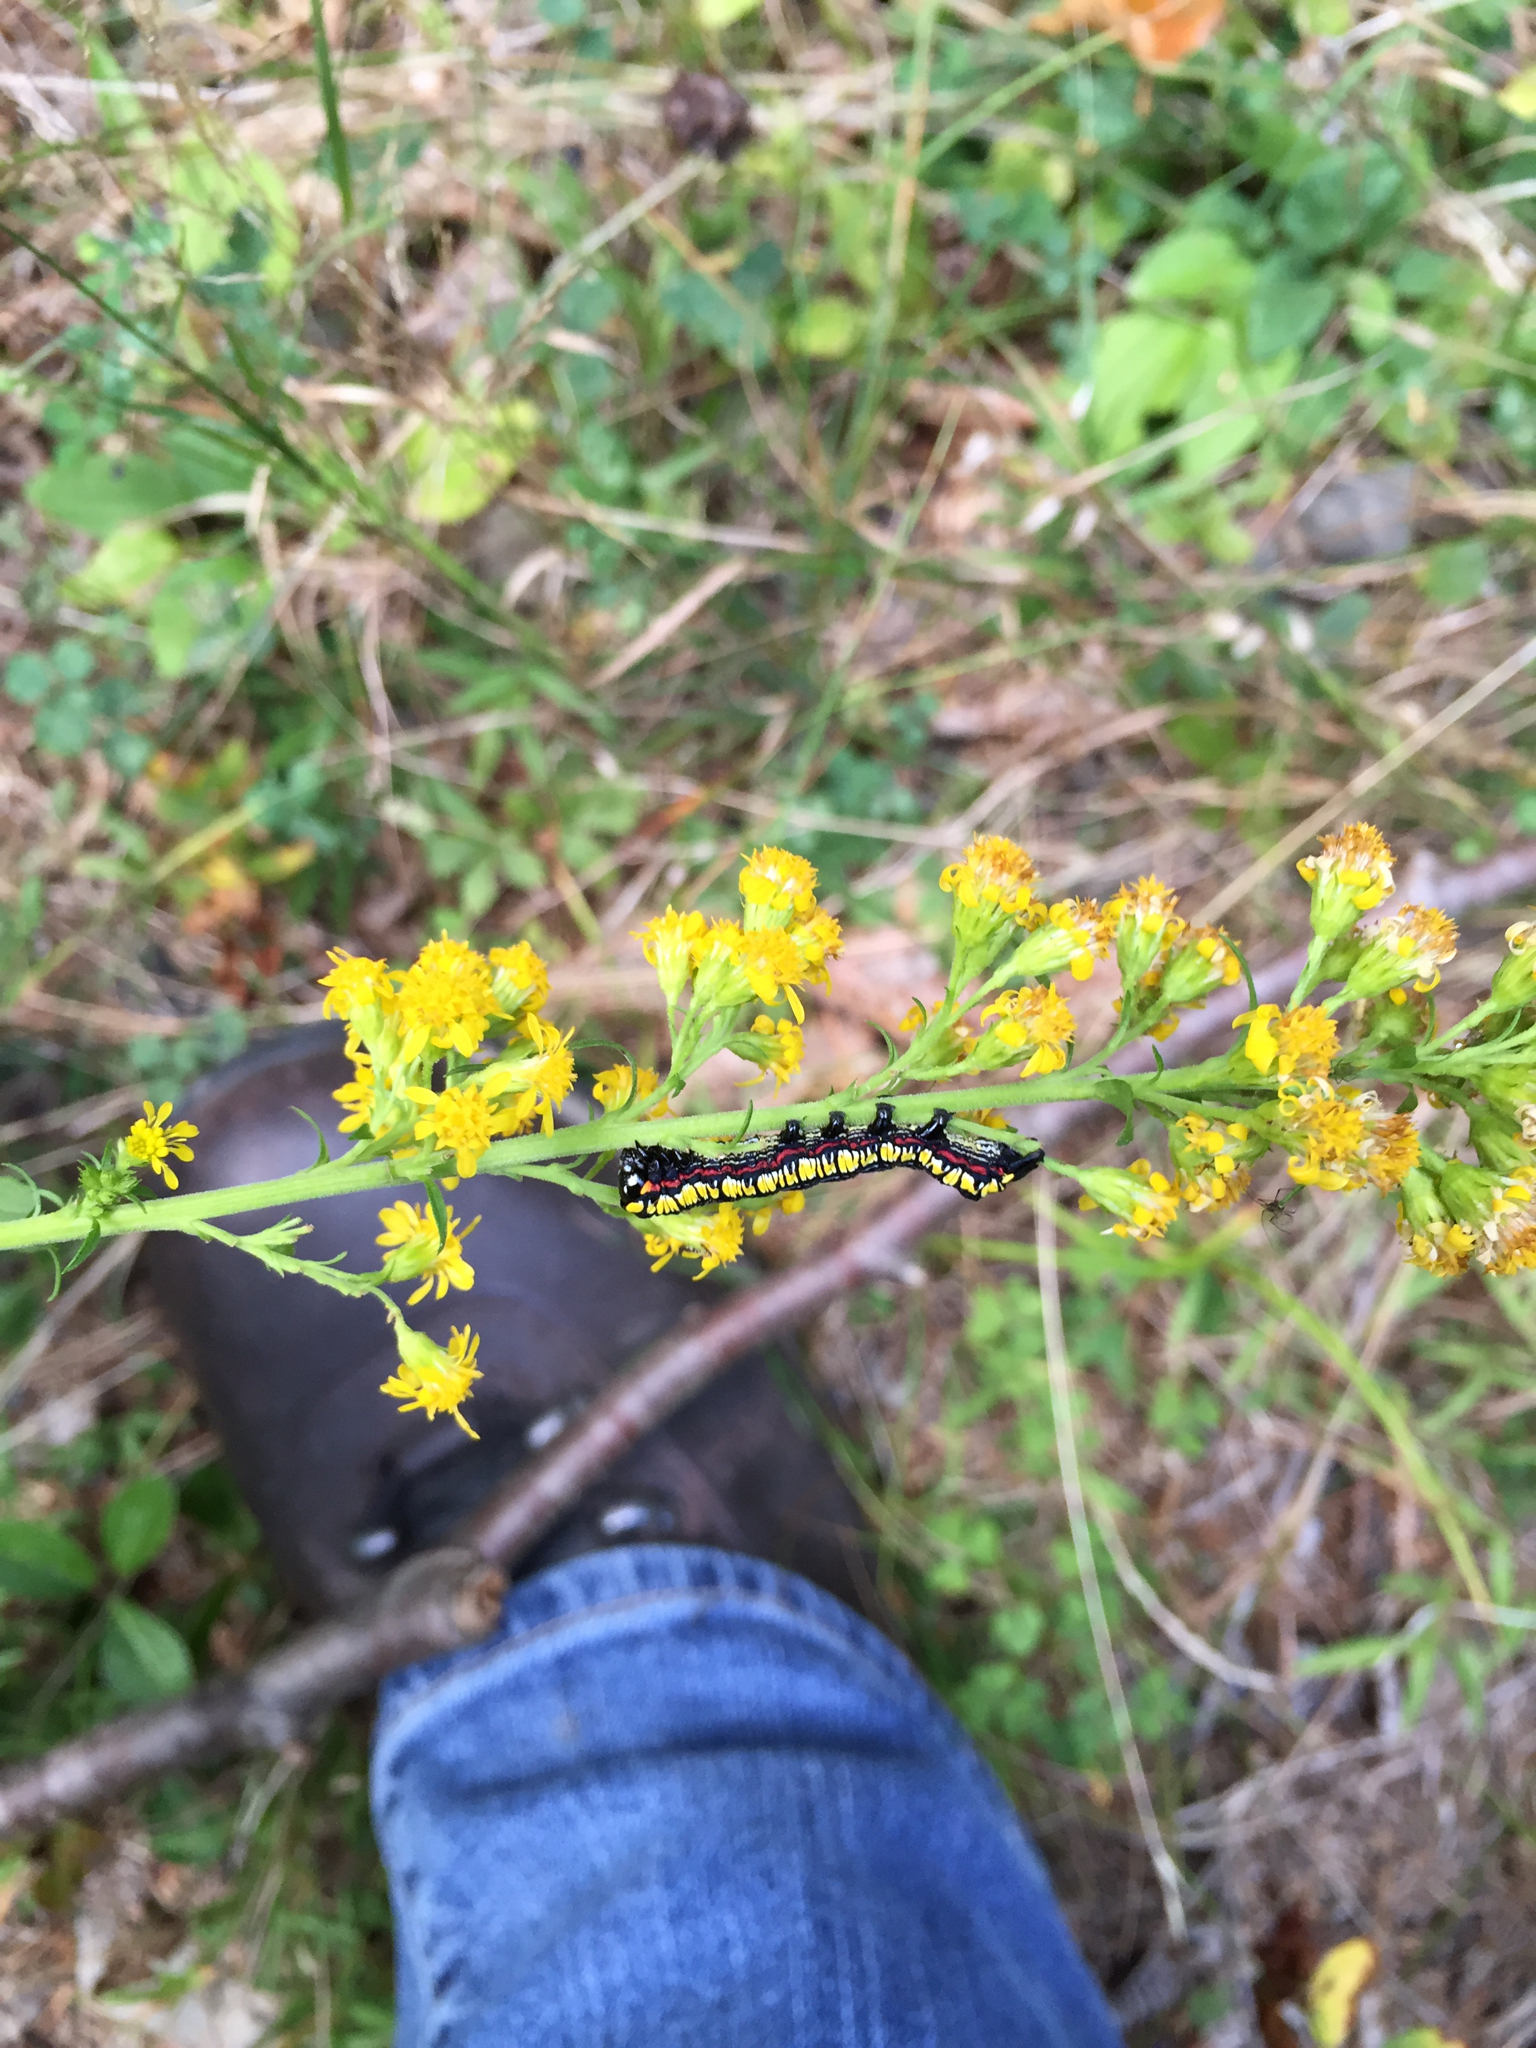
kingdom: Animalia
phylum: Arthropoda
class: Insecta
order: Lepidoptera
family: Noctuidae
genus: Cucullia
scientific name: Cucullia convexipennis
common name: Brown-hooded owlet
